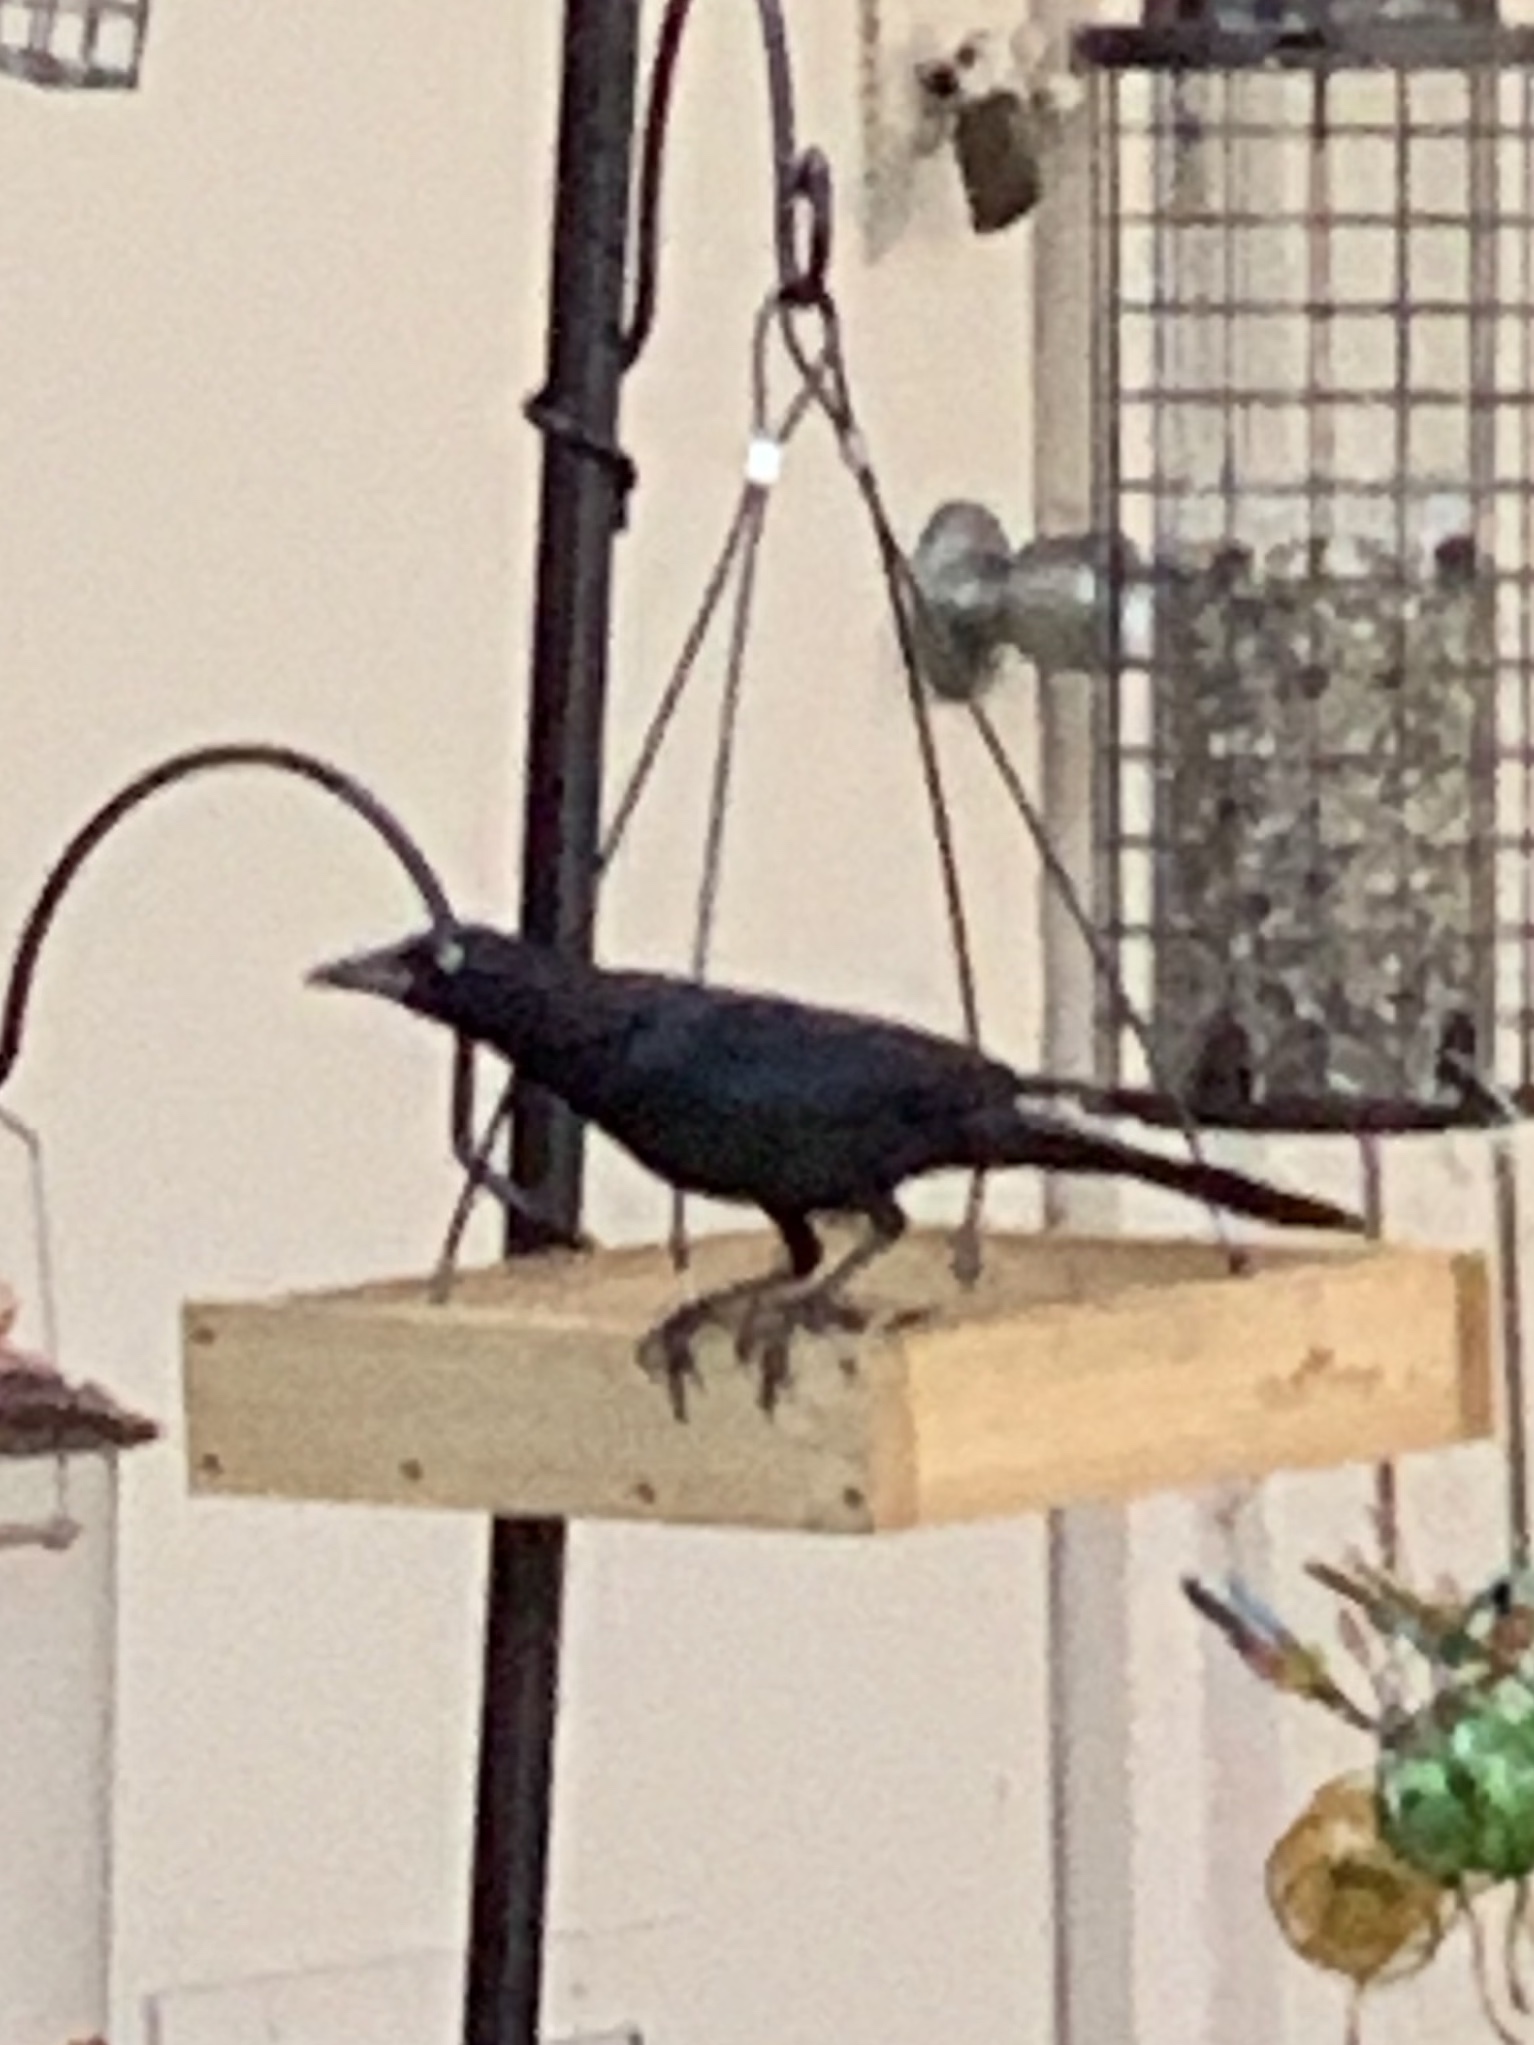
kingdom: Animalia
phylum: Chordata
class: Aves
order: Passeriformes
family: Icteridae
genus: Quiscalus
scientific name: Quiscalus quiscula
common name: Common grackle
